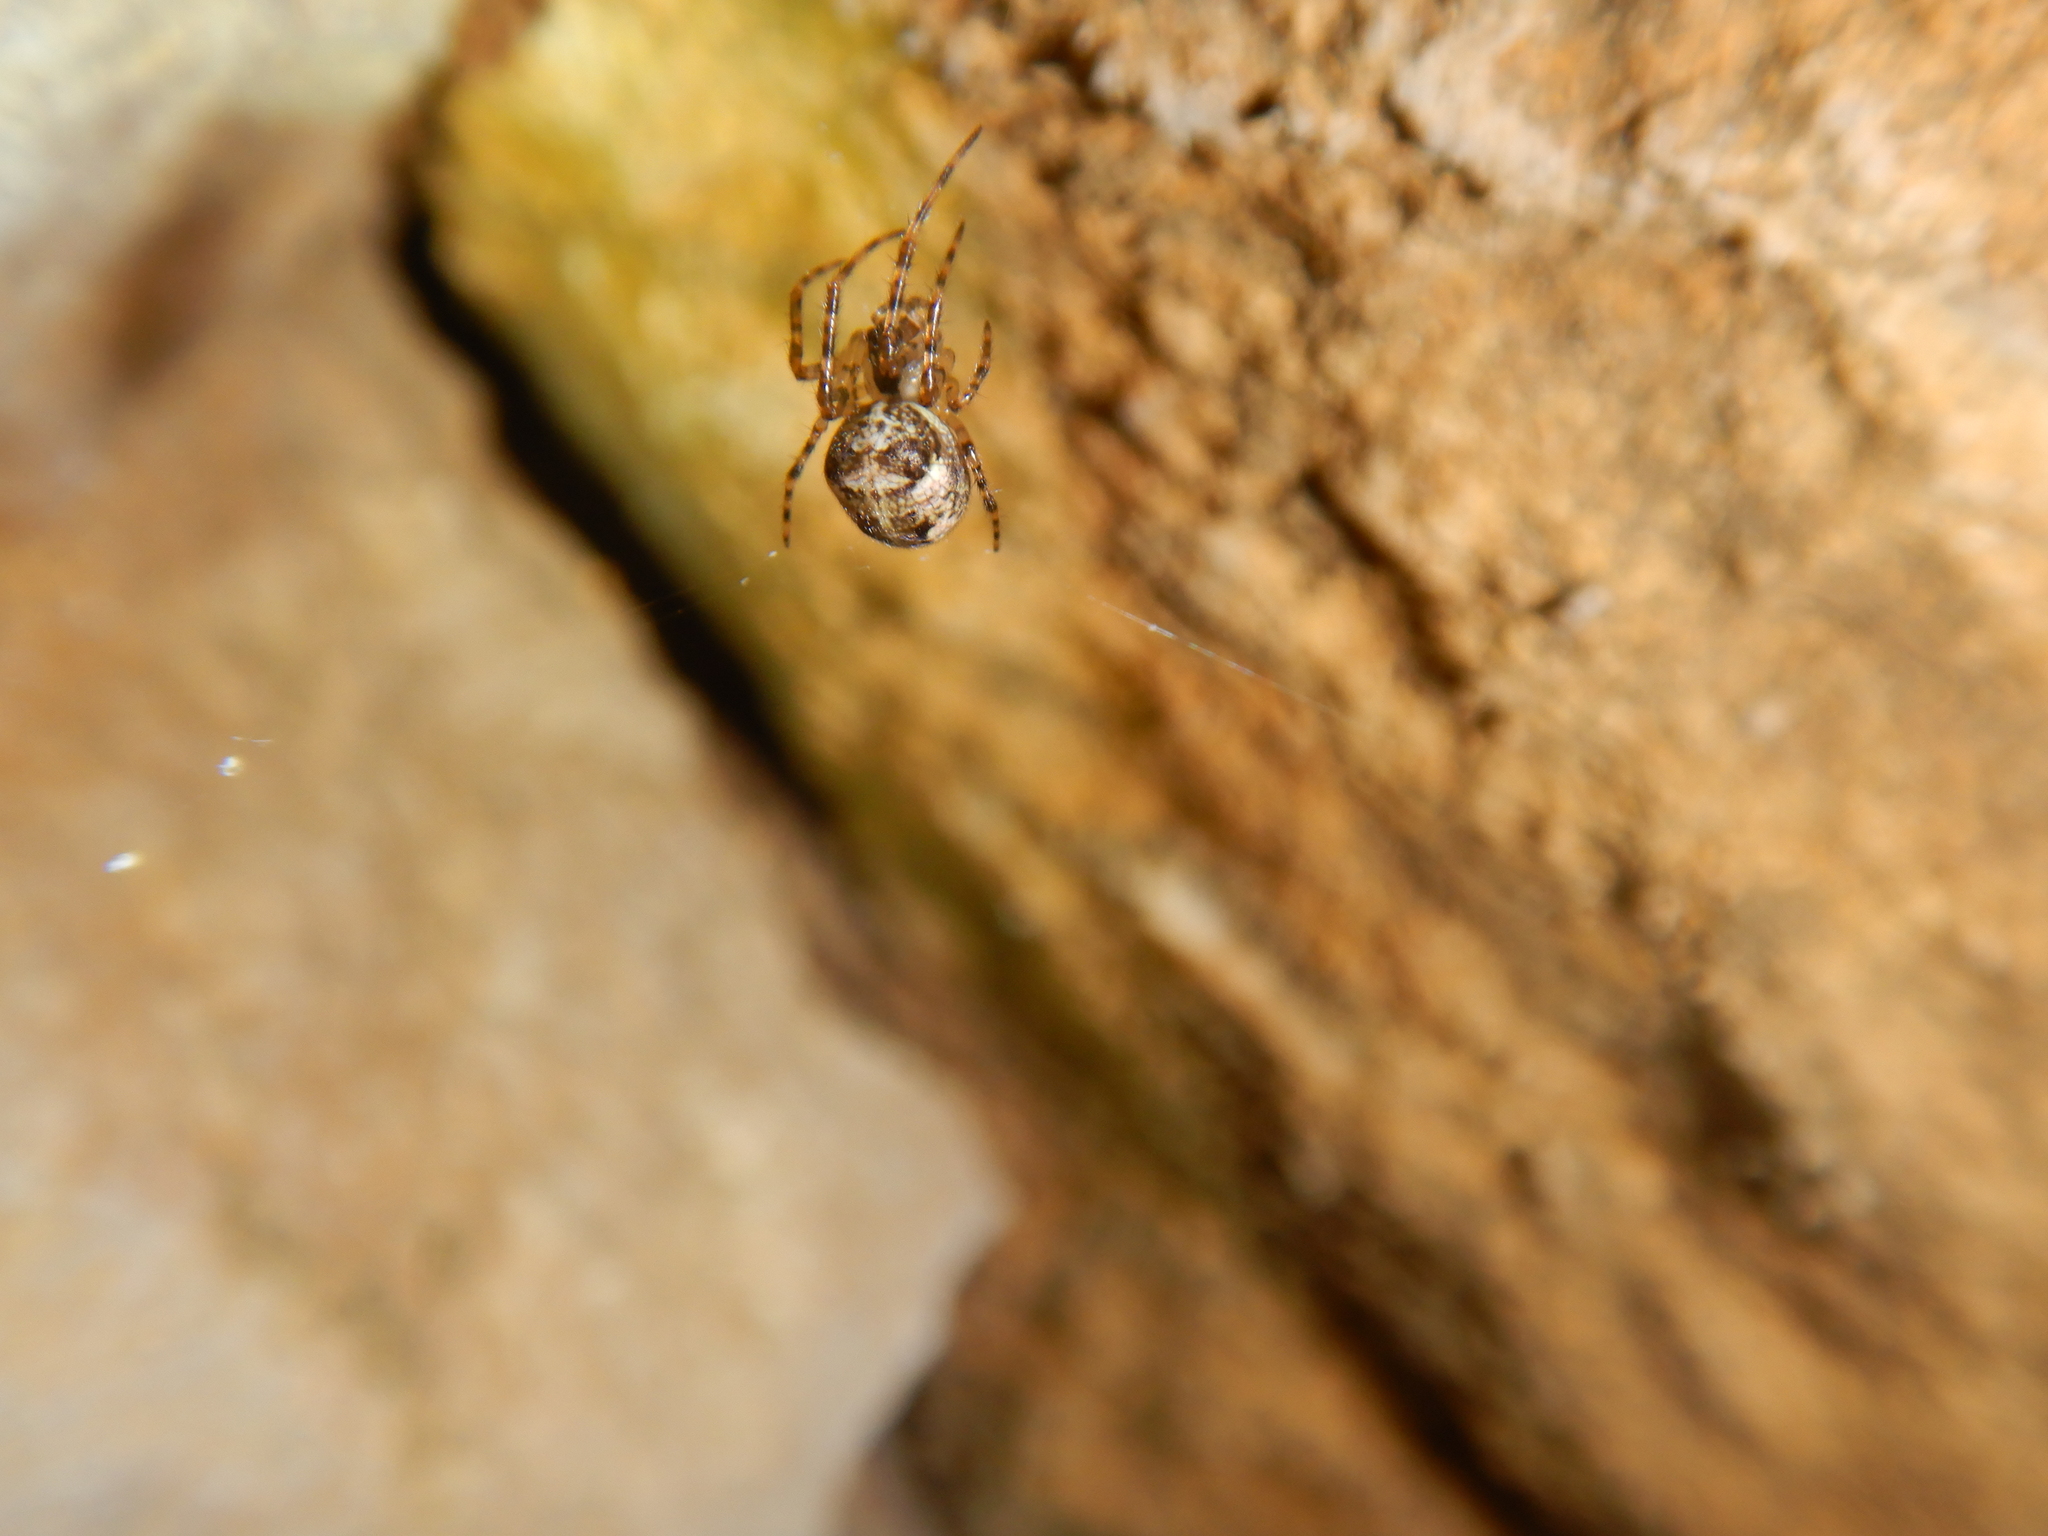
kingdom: Animalia
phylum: Arthropoda
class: Arachnida
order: Araneae
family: Tetragnathidae
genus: Metellina
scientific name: Metellina merianae
